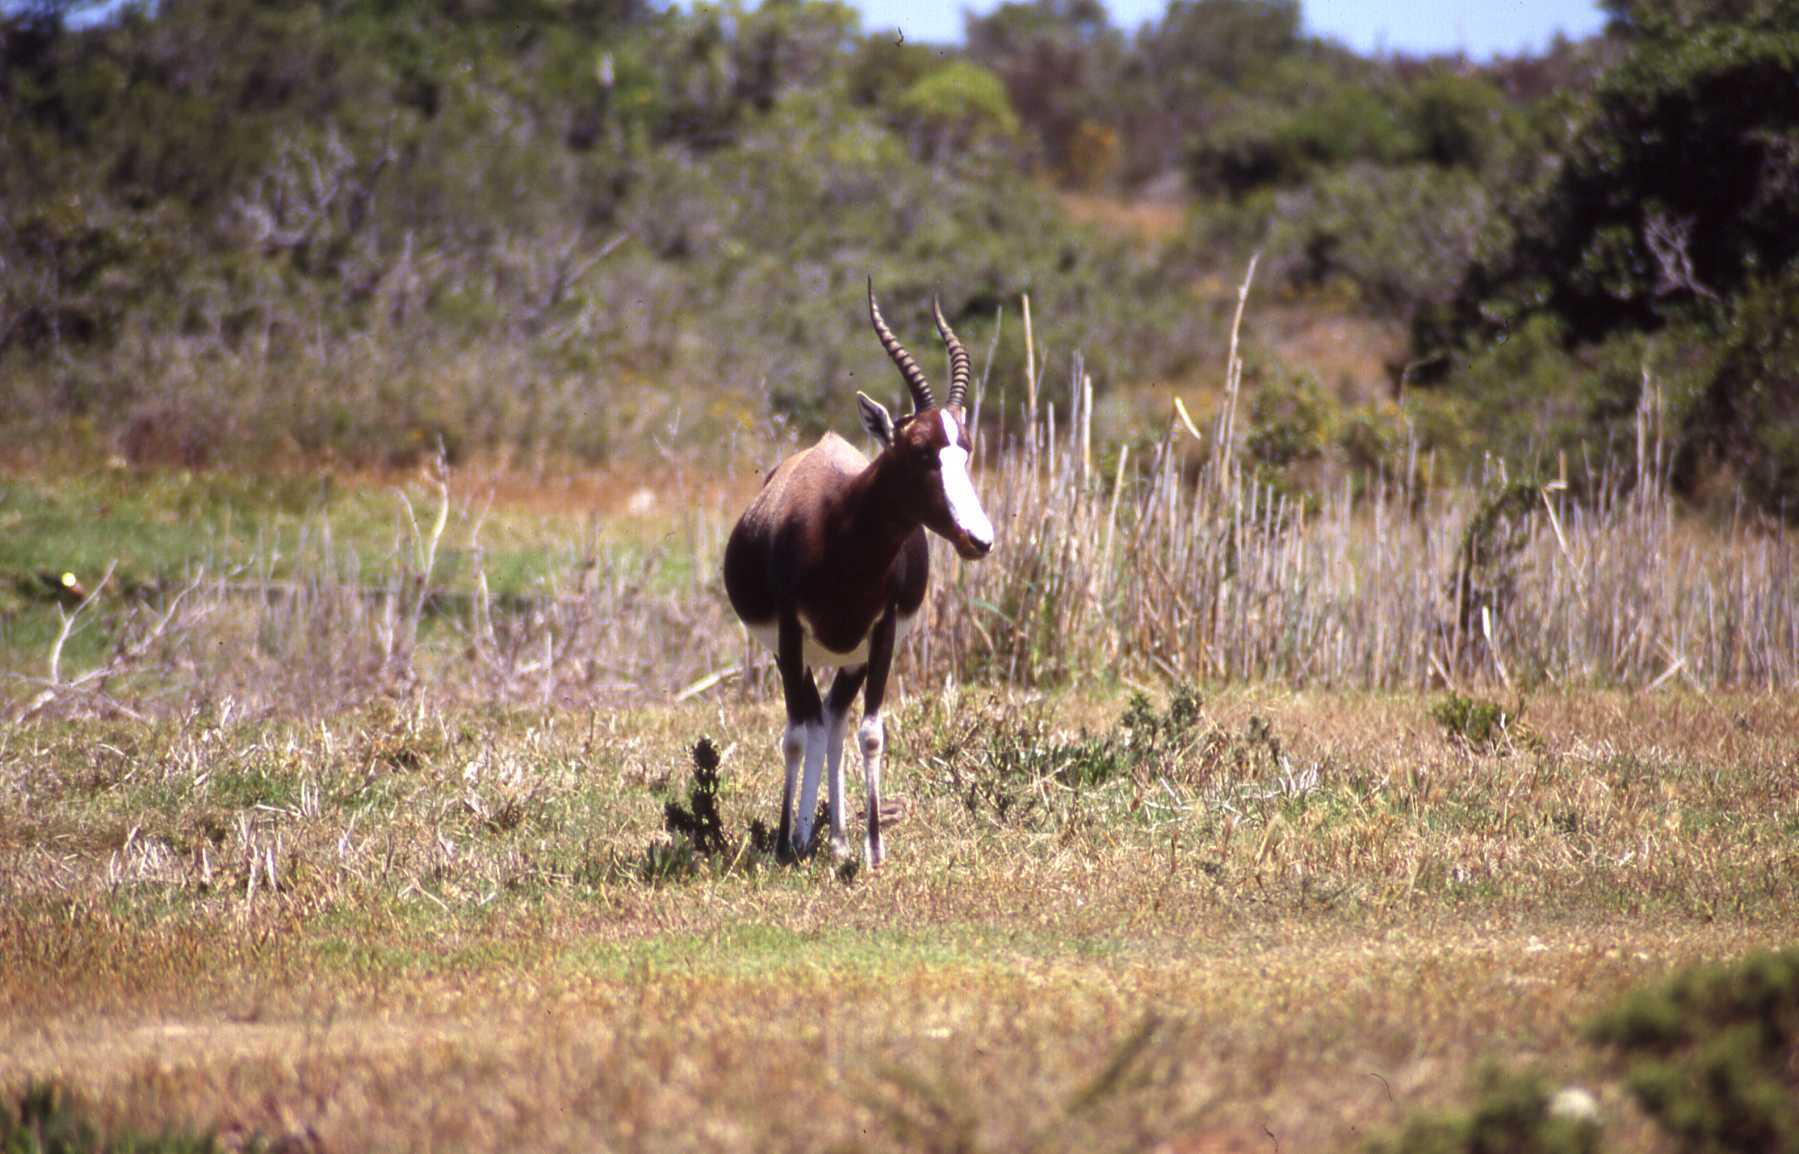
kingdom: Animalia
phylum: Chordata
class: Mammalia
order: Artiodactyla
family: Bovidae
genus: Damaliscus
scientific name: Damaliscus pygargus
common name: Bontebok
